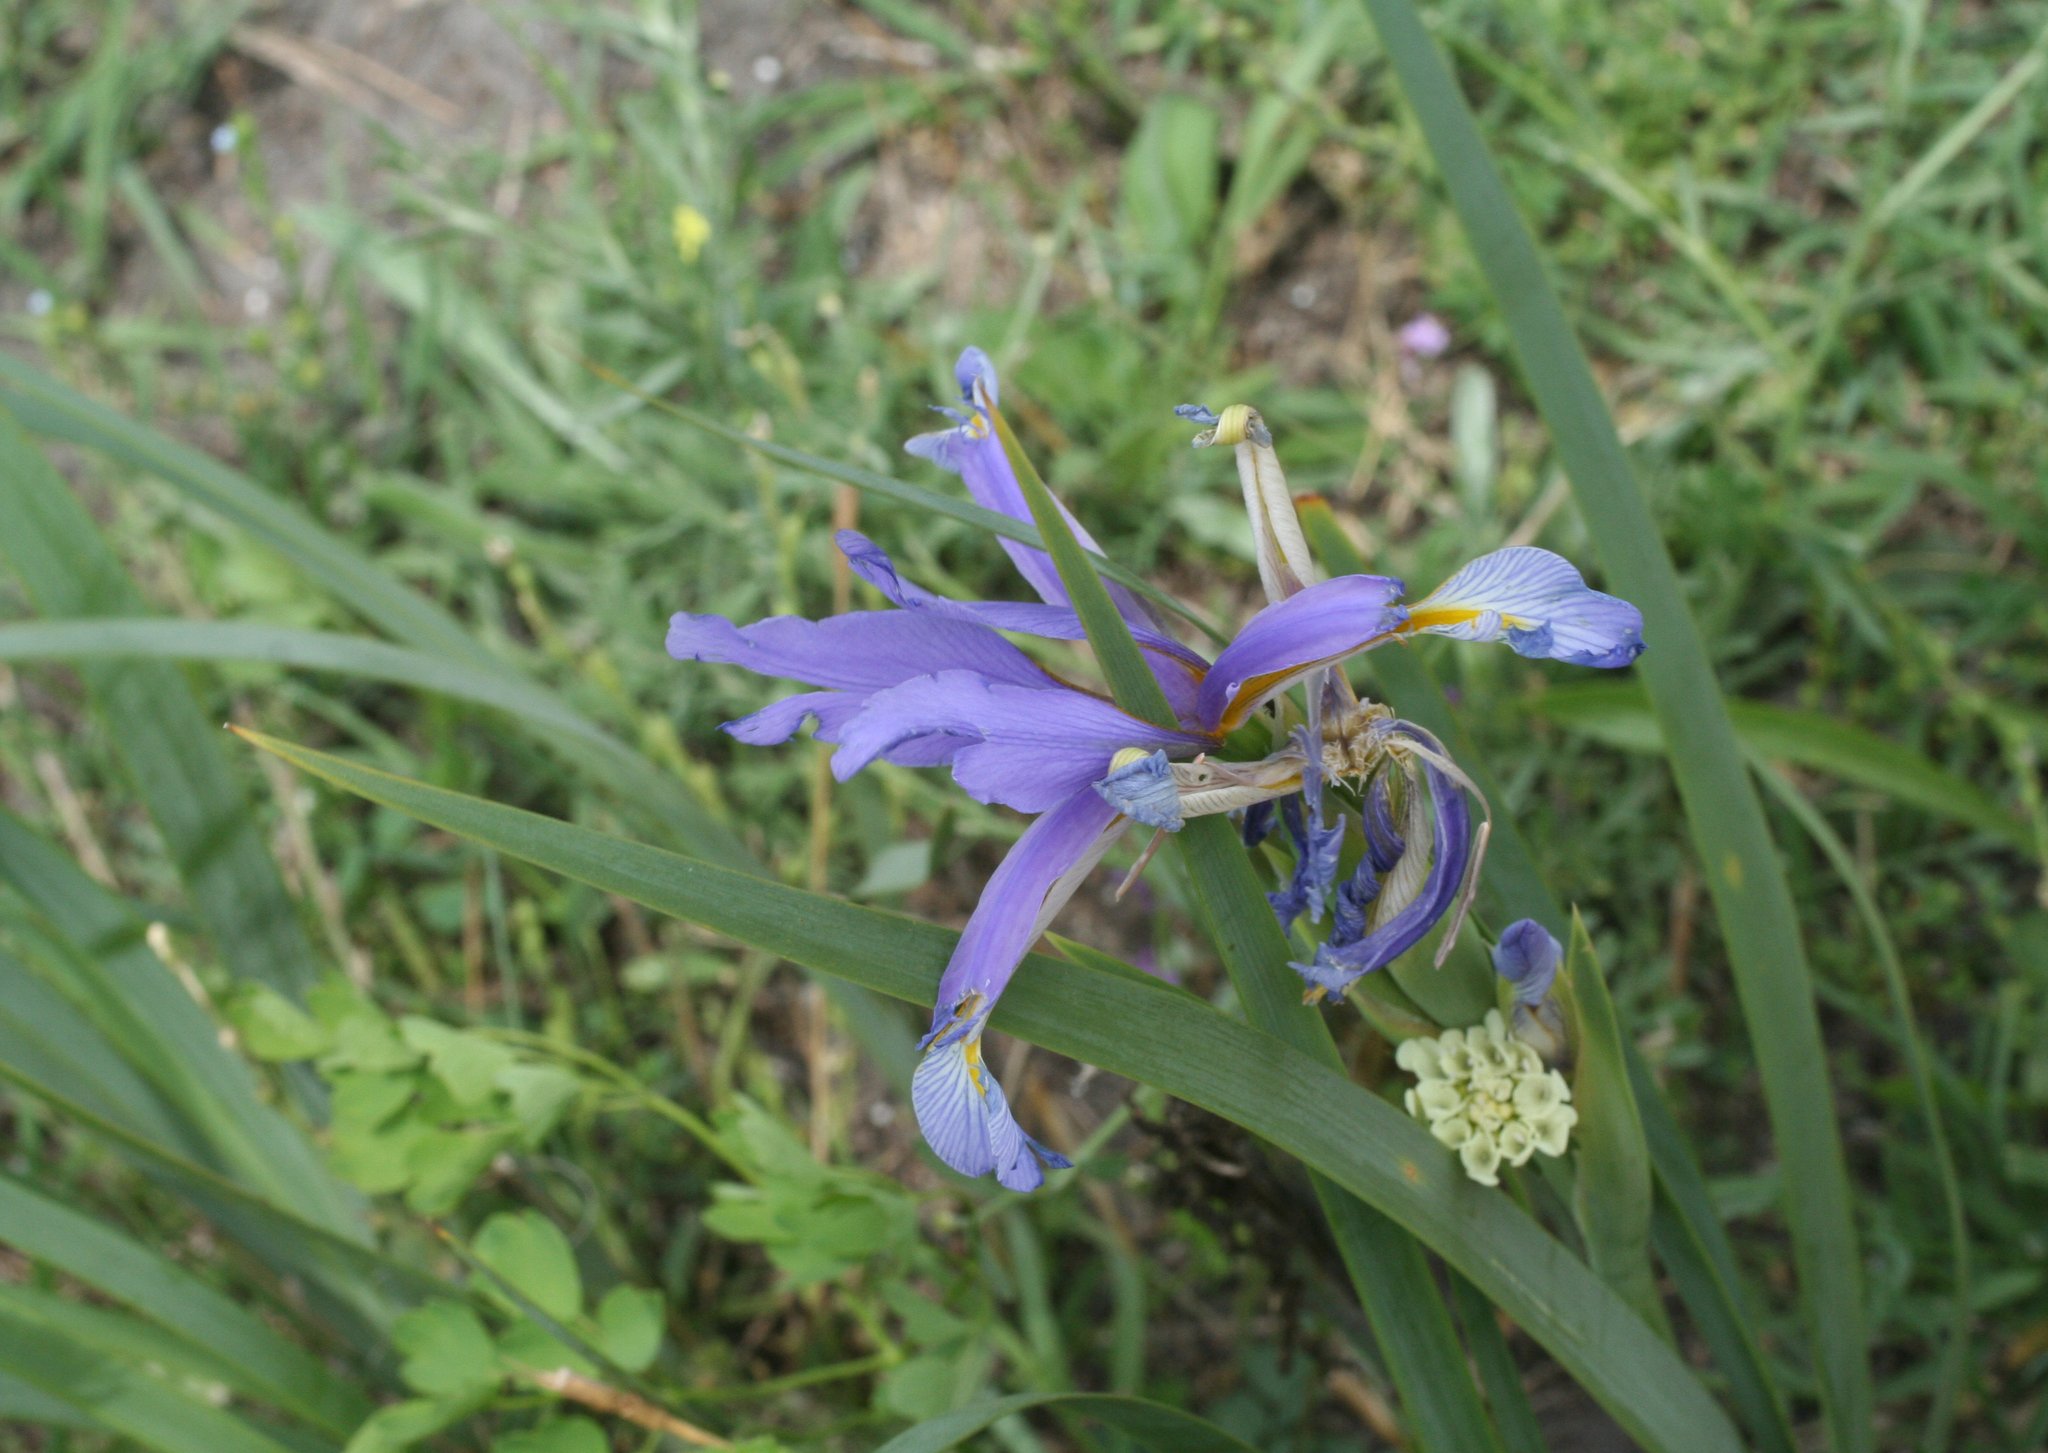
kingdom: Plantae
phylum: Tracheophyta
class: Liliopsida
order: Asparagales
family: Iridaceae
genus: Iris
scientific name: Iris pseudonotha
